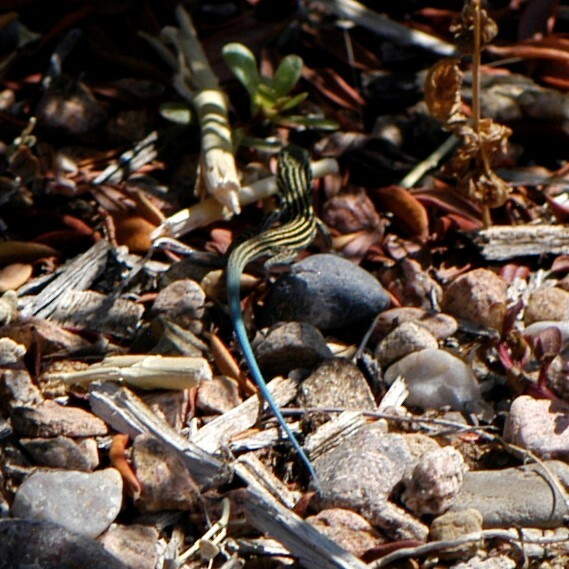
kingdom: Animalia
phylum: Chordata
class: Squamata
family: Teiidae
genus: Aspidoscelis
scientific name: Aspidoscelis neomexicanus
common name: New mexico whiptail
